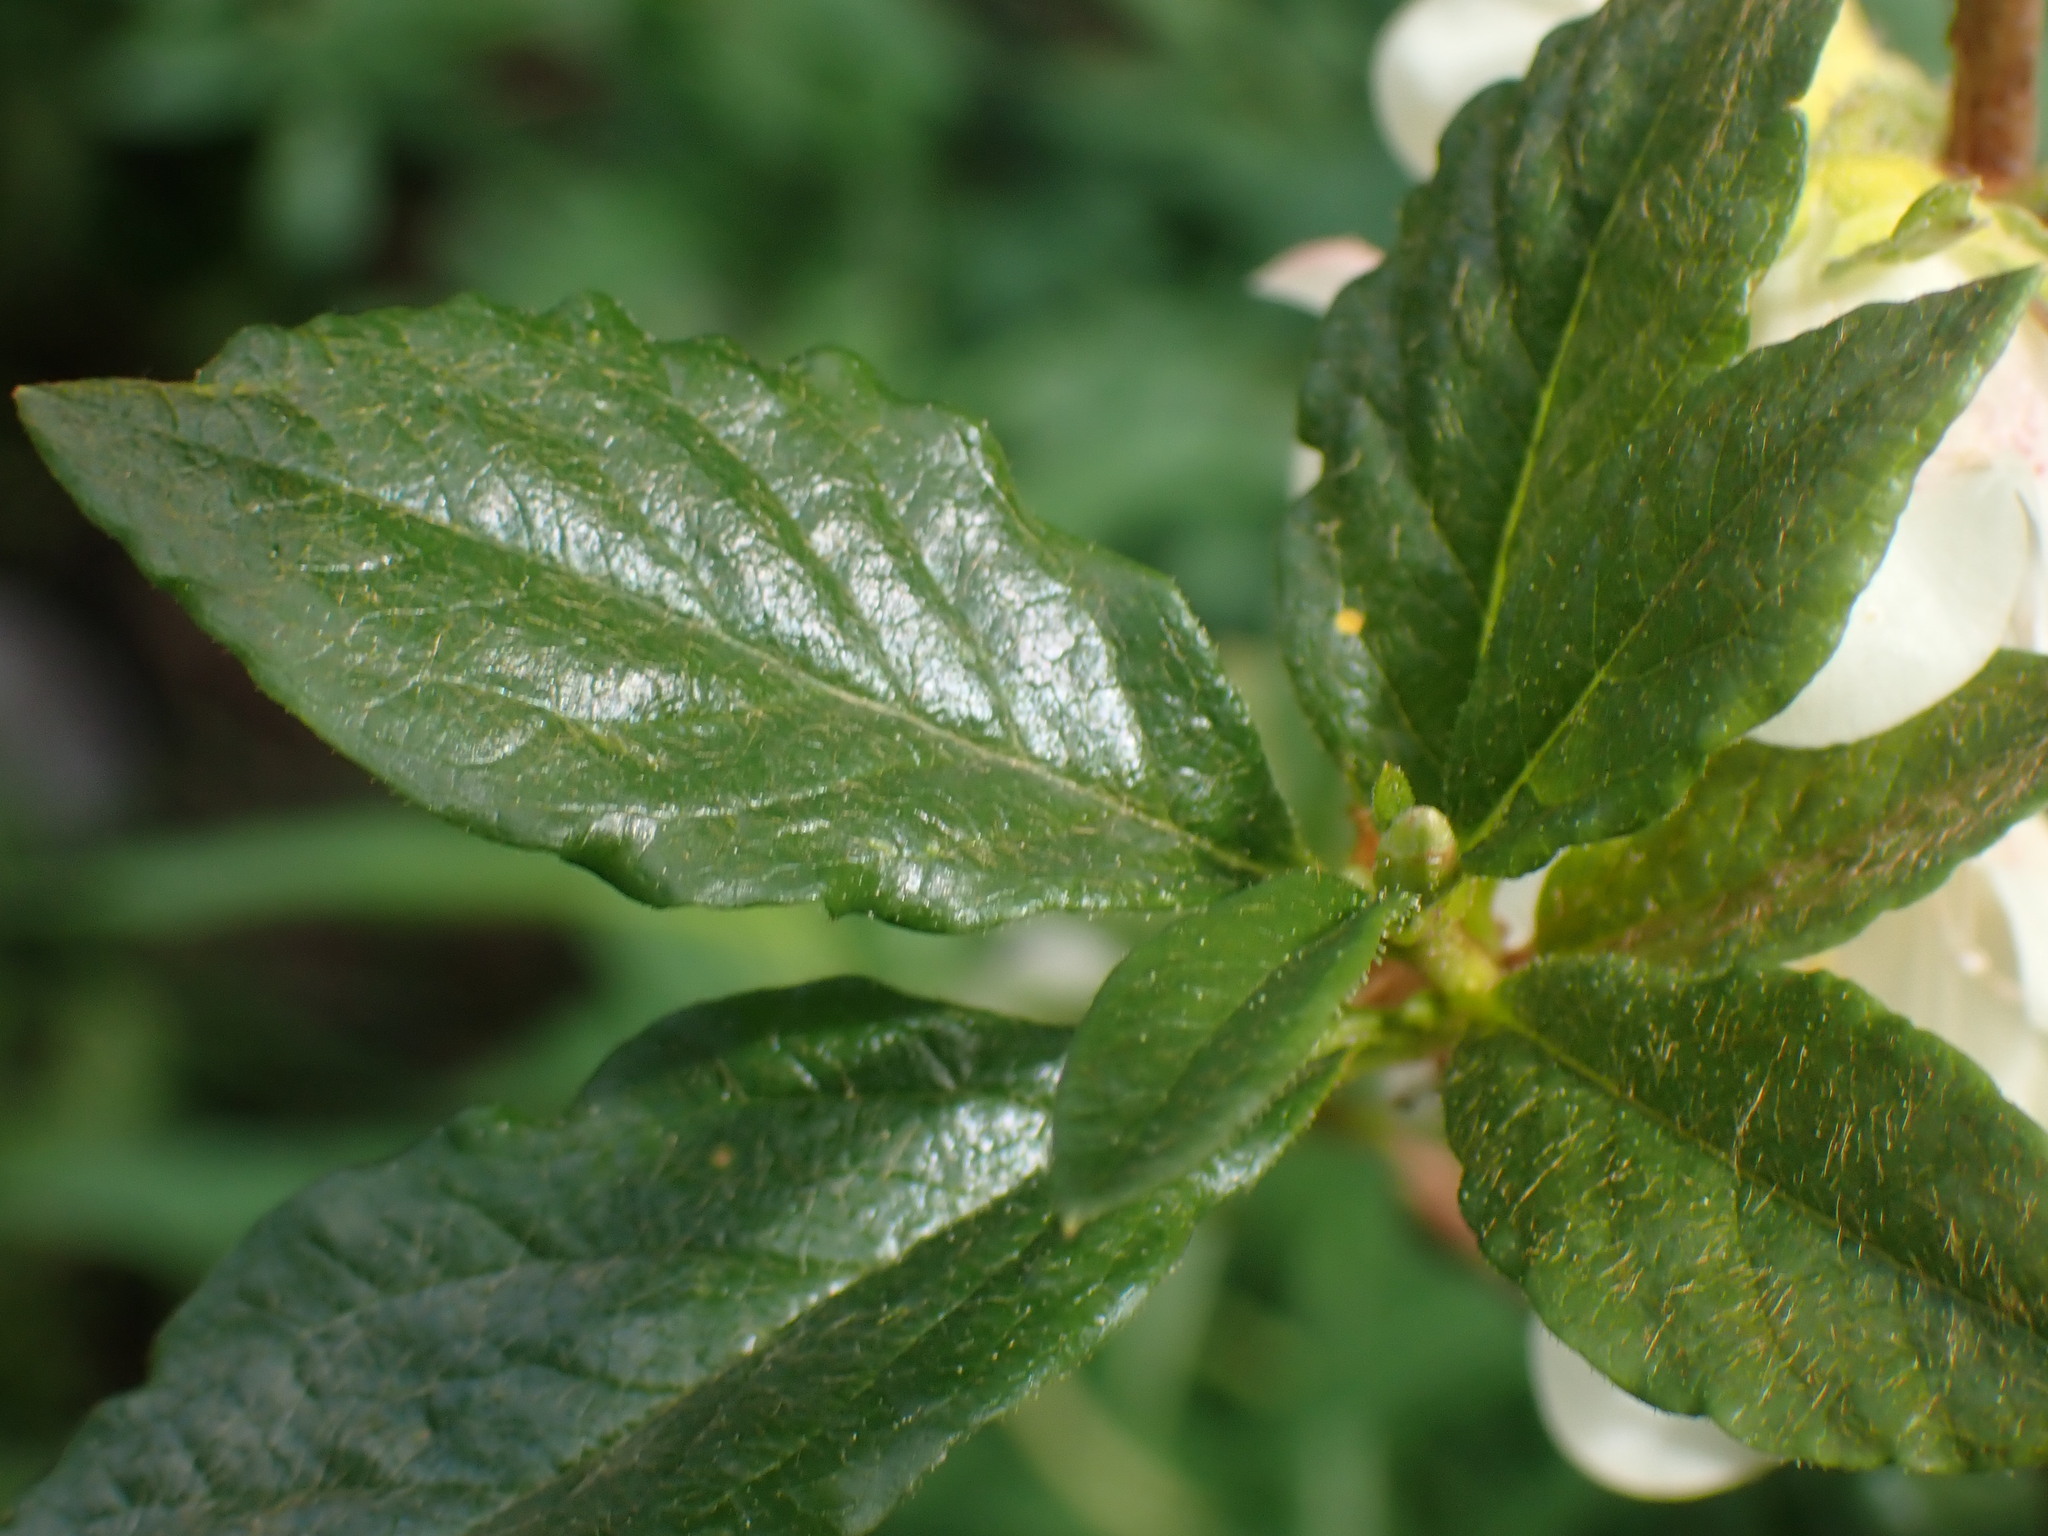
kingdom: Plantae
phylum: Tracheophyta
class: Magnoliopsida
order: Ericales
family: Ericaceae
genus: Rhododendron
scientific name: Rhododendron albiflorum
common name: White rhododendron
